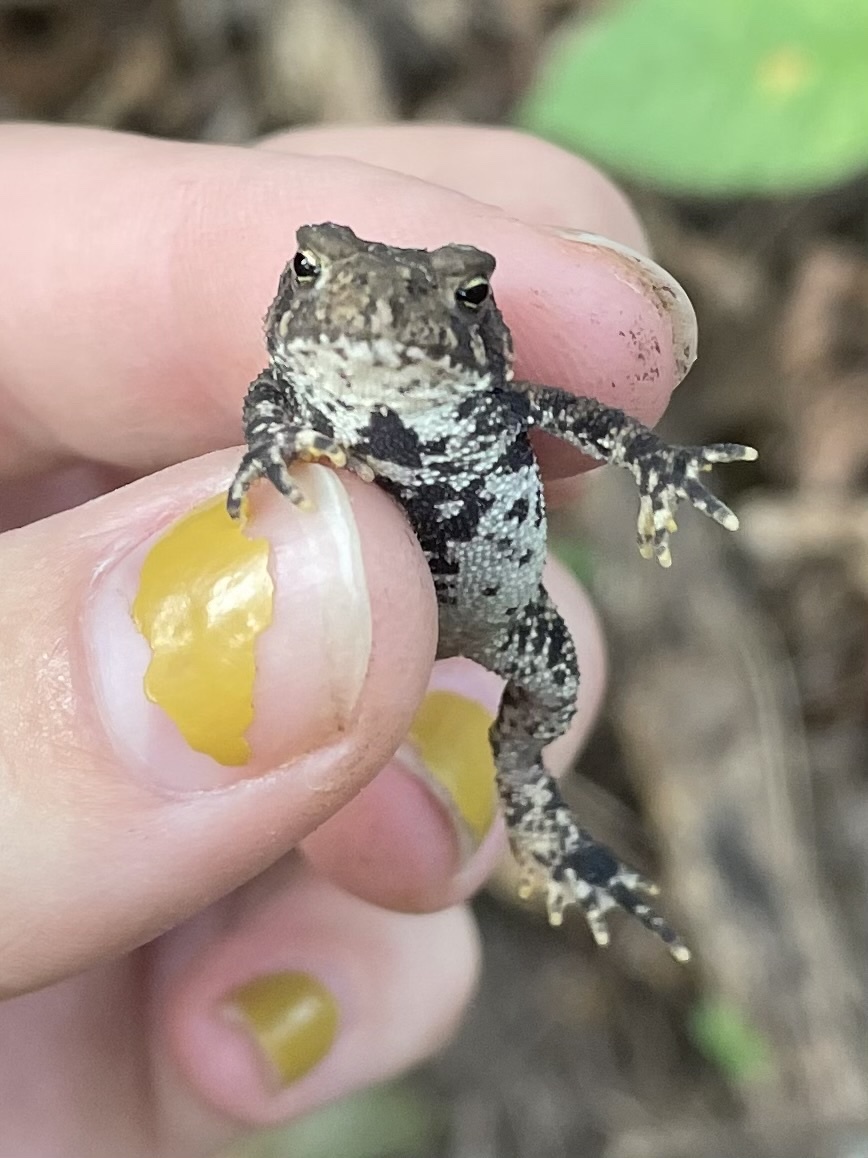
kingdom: Animalia
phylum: Chordata
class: Amphibia
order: Anura
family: Bufonidae
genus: Anaxyrus
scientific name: Anaxyrus americanus
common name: American toad
